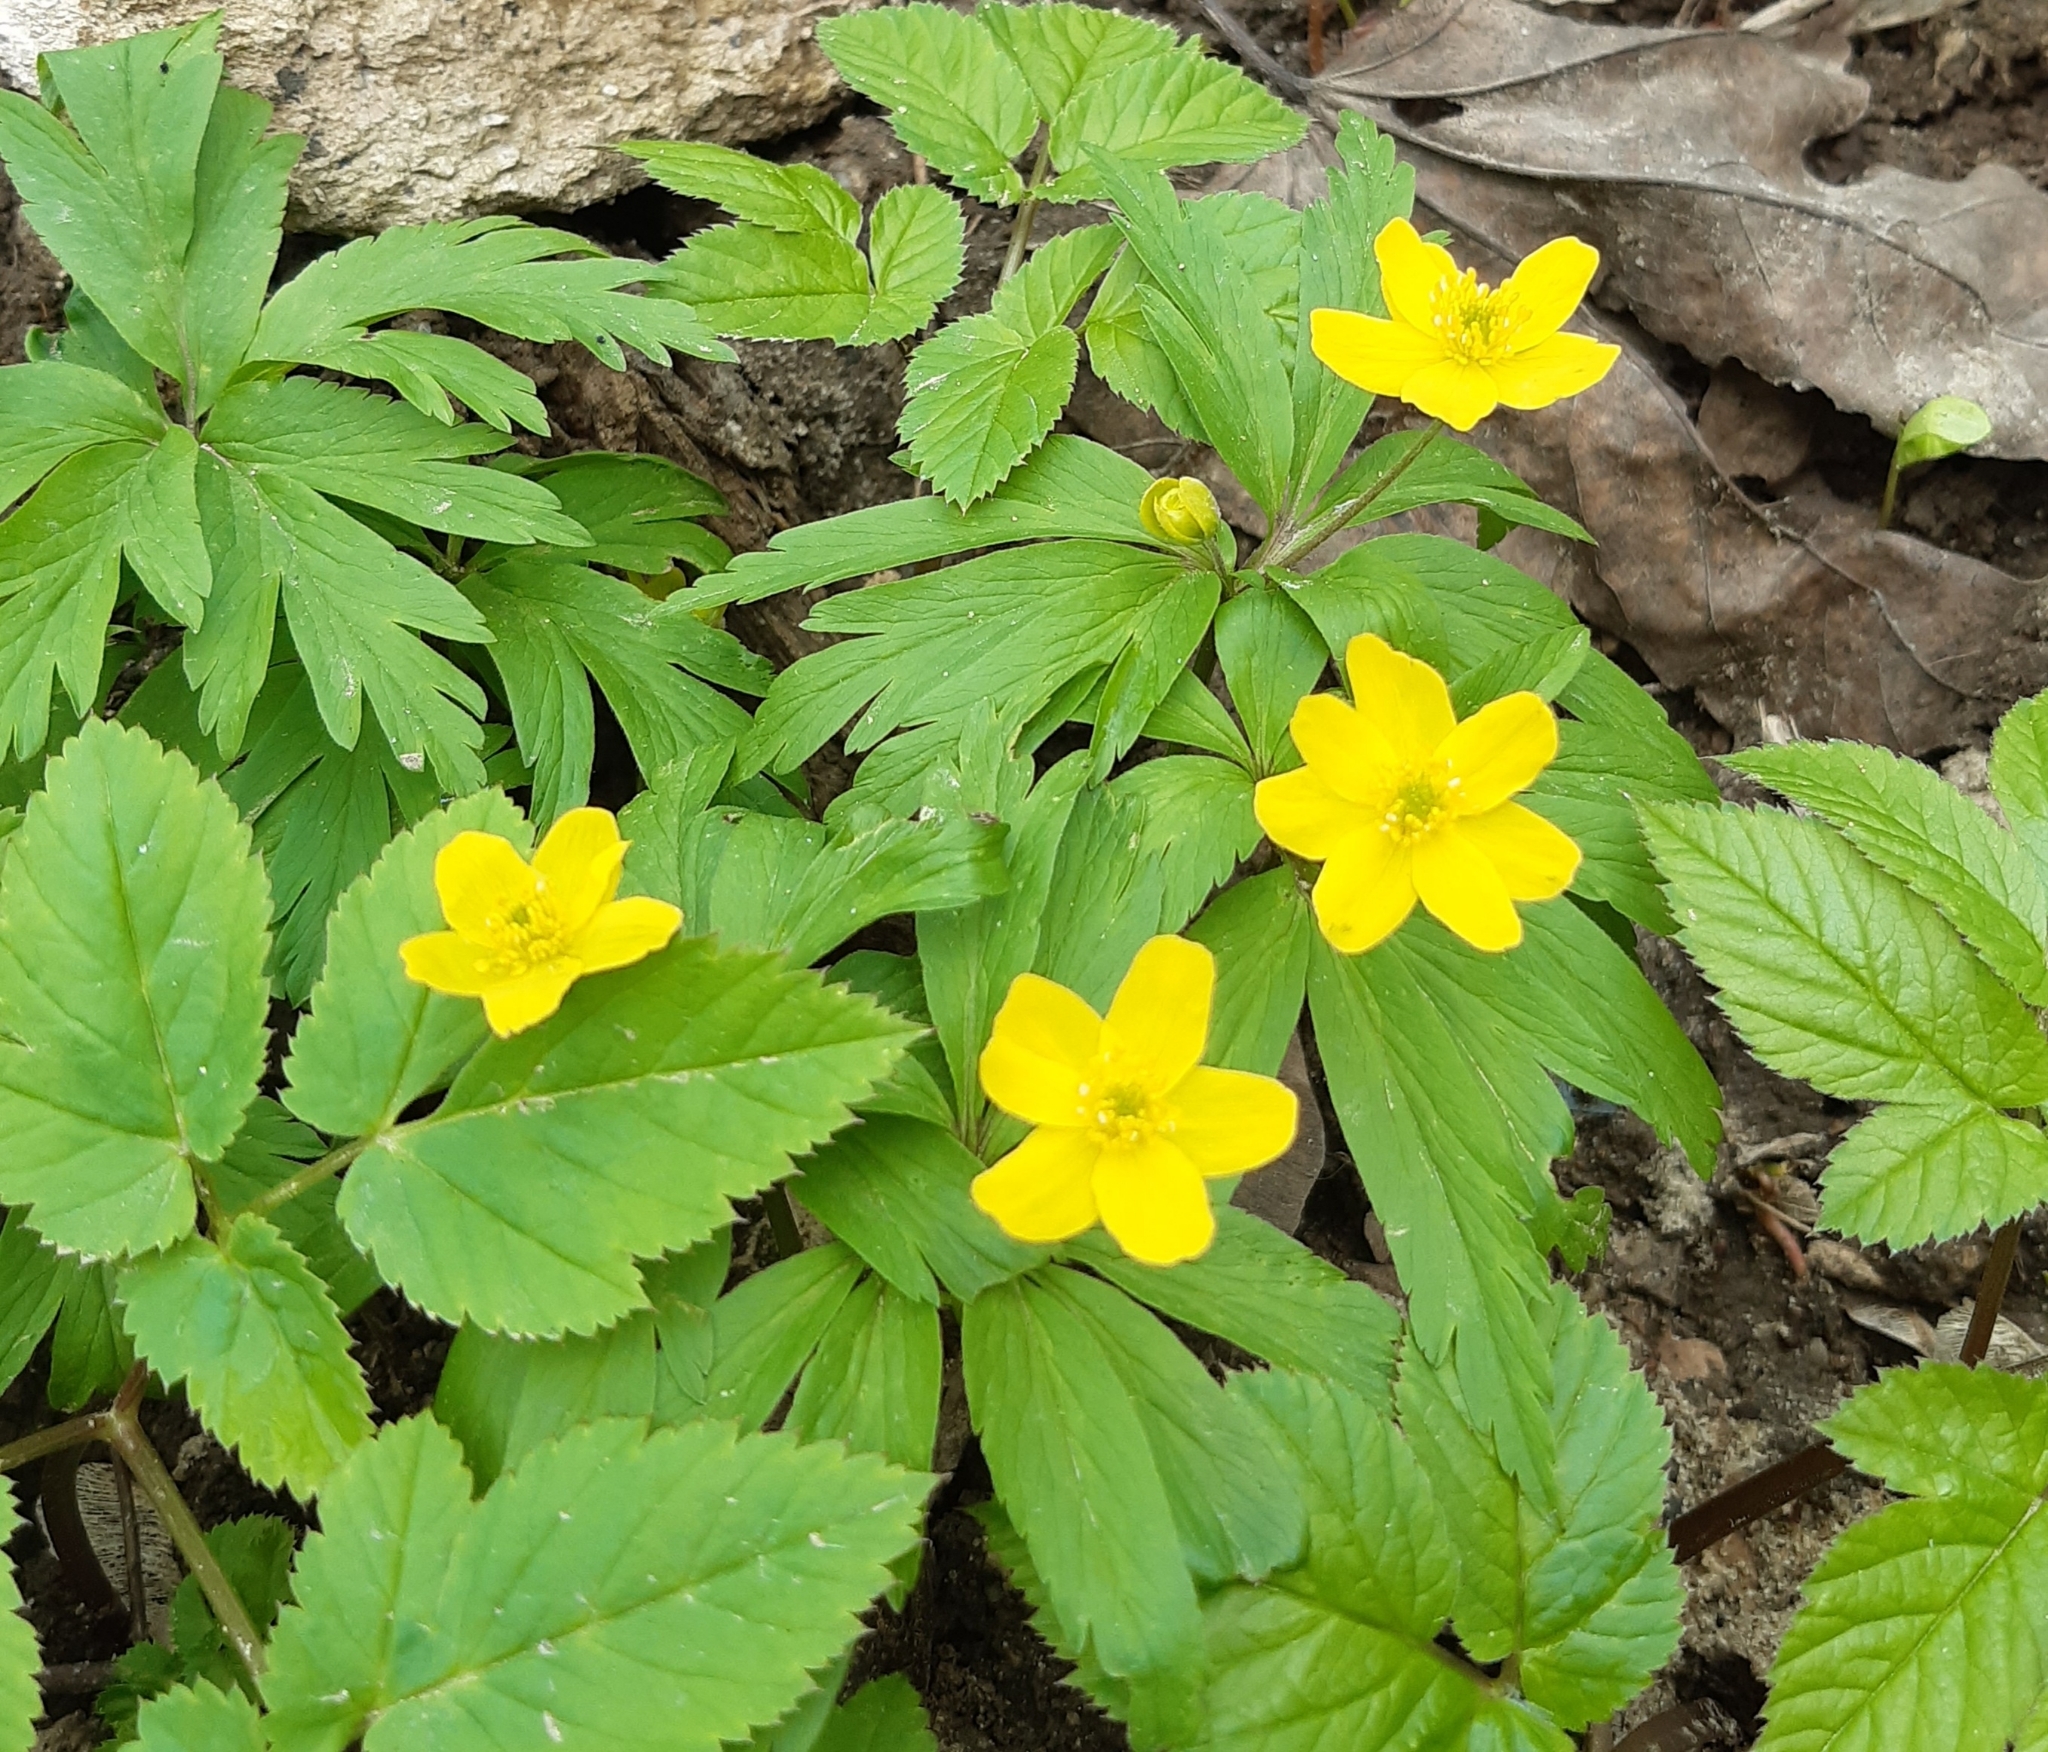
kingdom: Plantae
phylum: Tracheophyta
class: Magnoliopsida
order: Ranunculales
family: Ranunculaceae
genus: Anemone
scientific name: Anemone ranunculoides
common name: Yellow anemone
